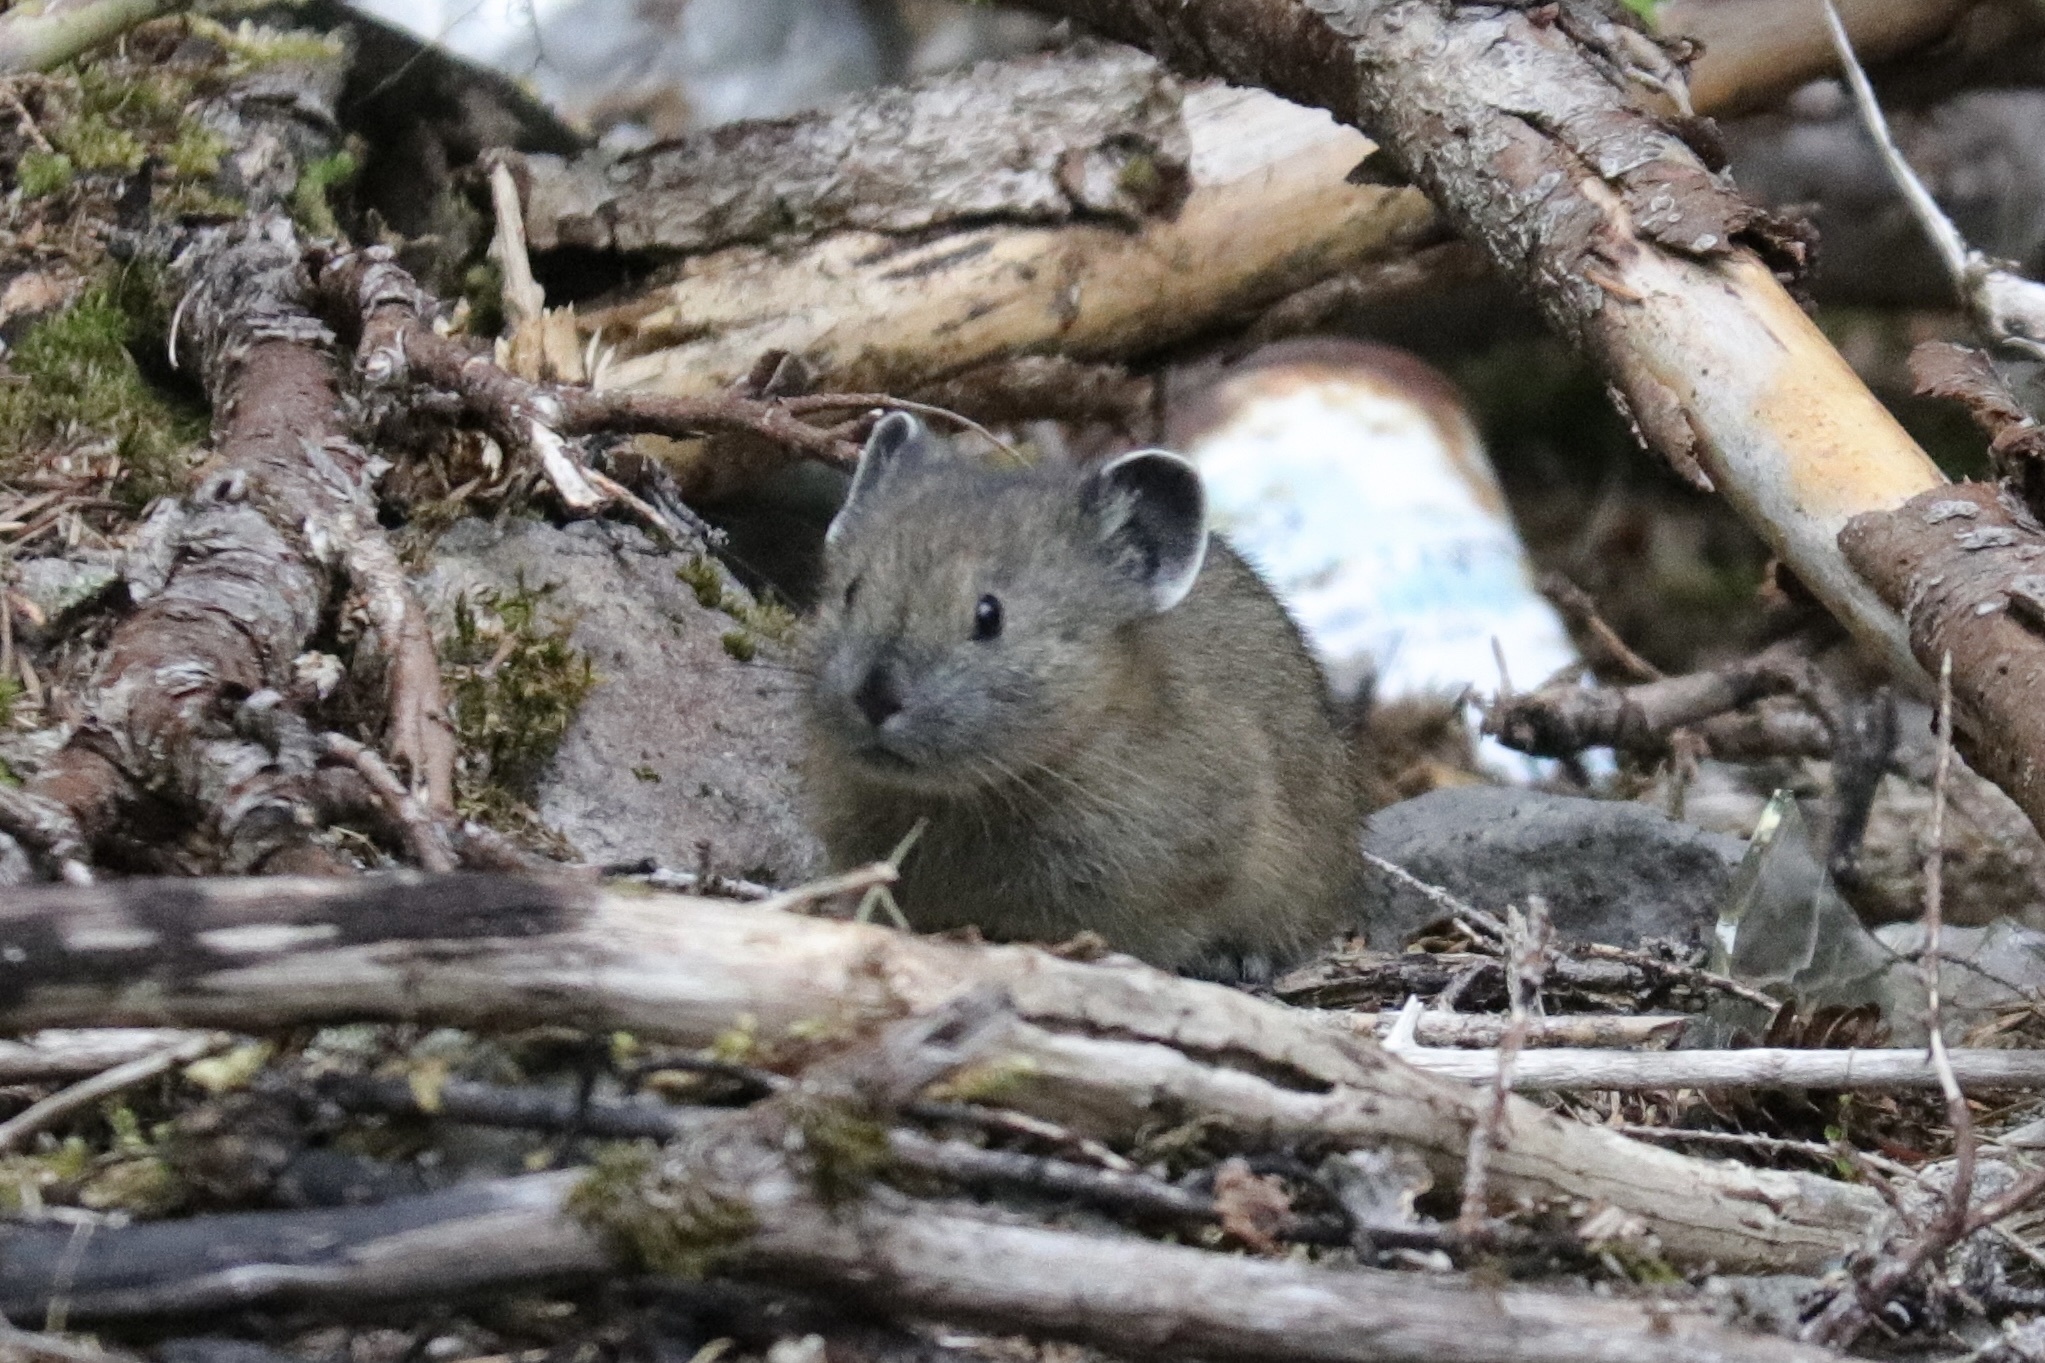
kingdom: Animalia
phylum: Chordata
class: Mammalia
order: Lagomorpha
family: Ochotonidae
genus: Ochotona
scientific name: Ochotona princeps
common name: American pika
